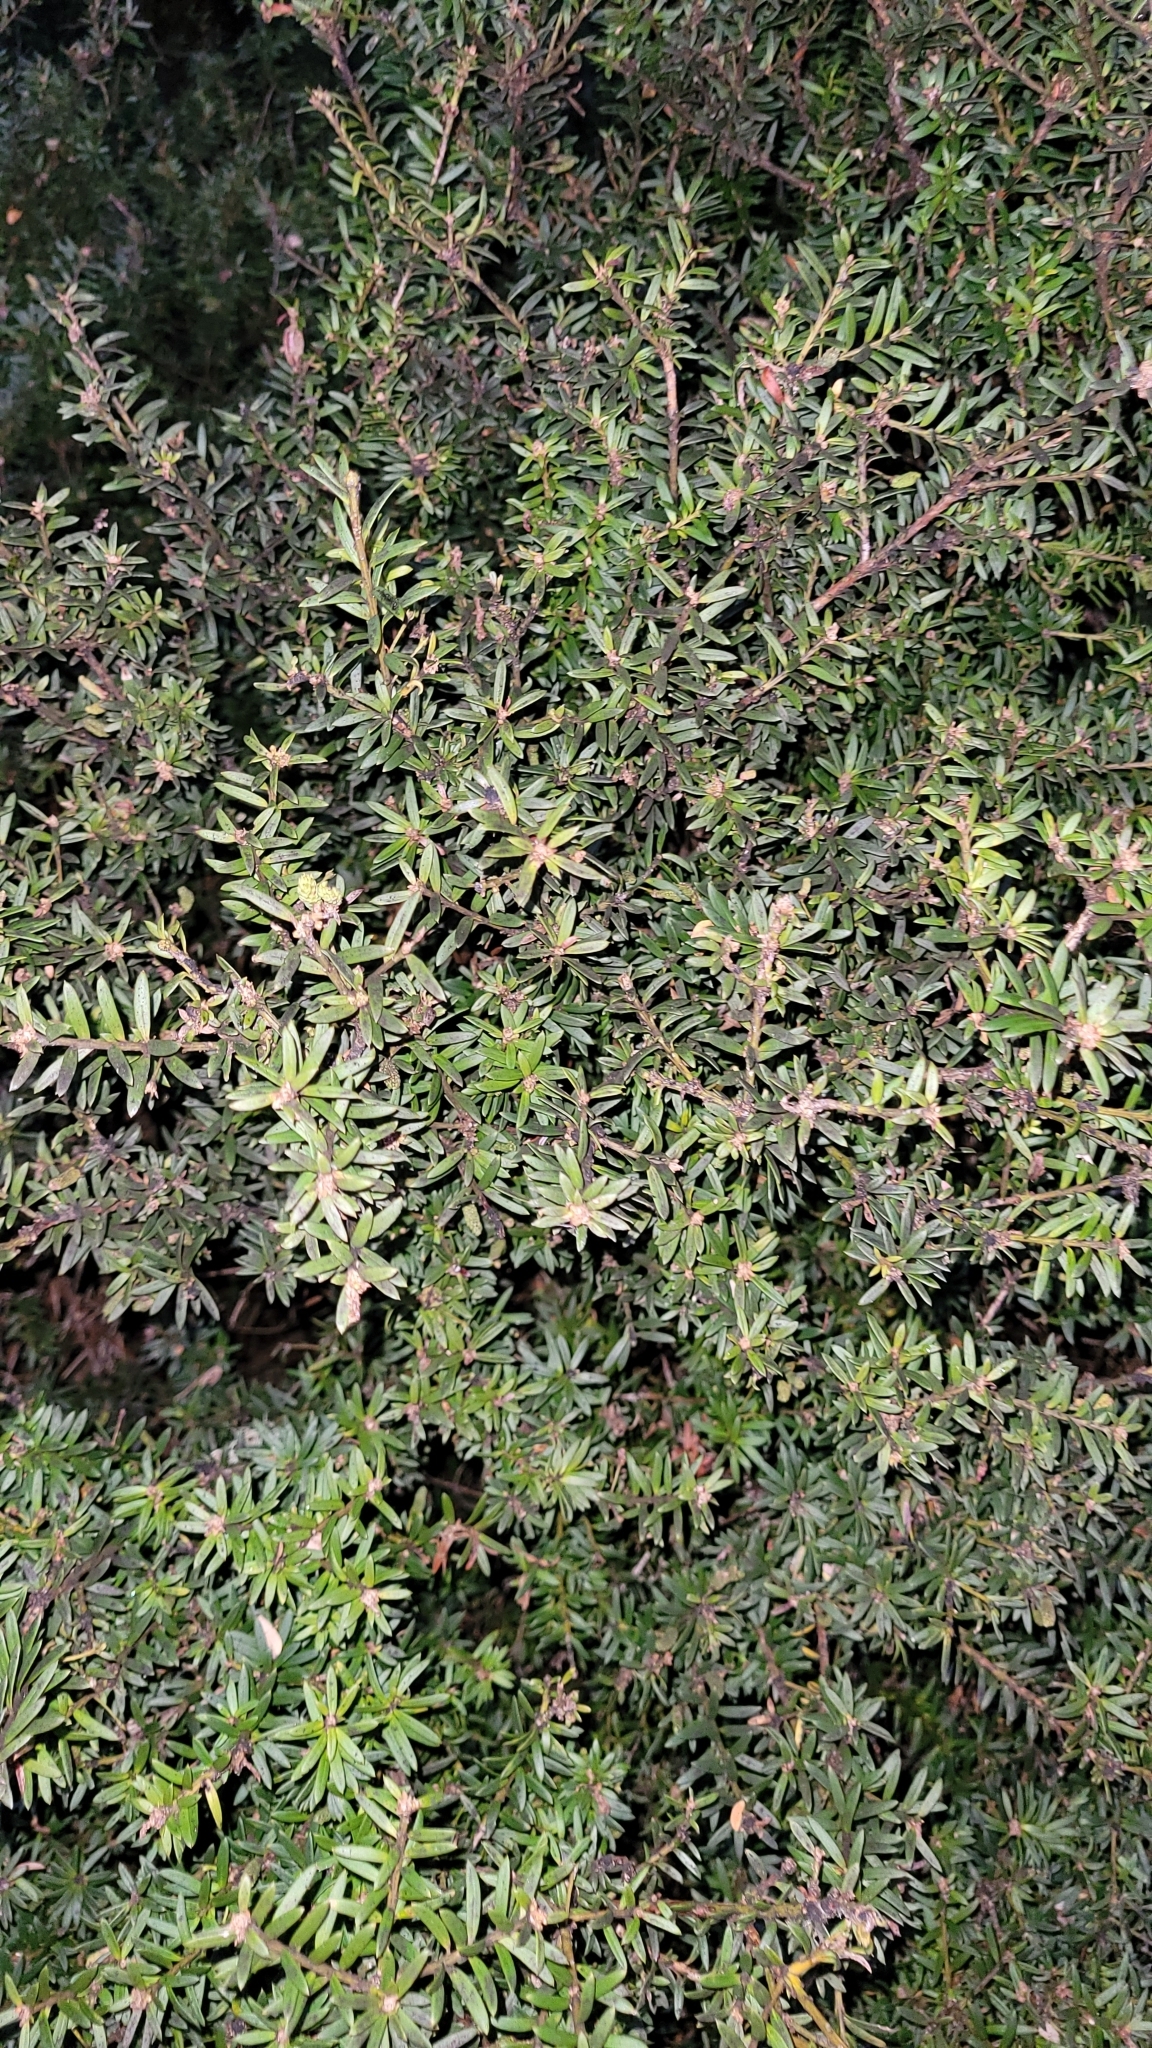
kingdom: Plantae
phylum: Tracheophyta
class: Pinopsida
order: Pinales
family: Podocarpaceae
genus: Podocarpus
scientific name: Podocarpus nivalis
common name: Alpine totara
